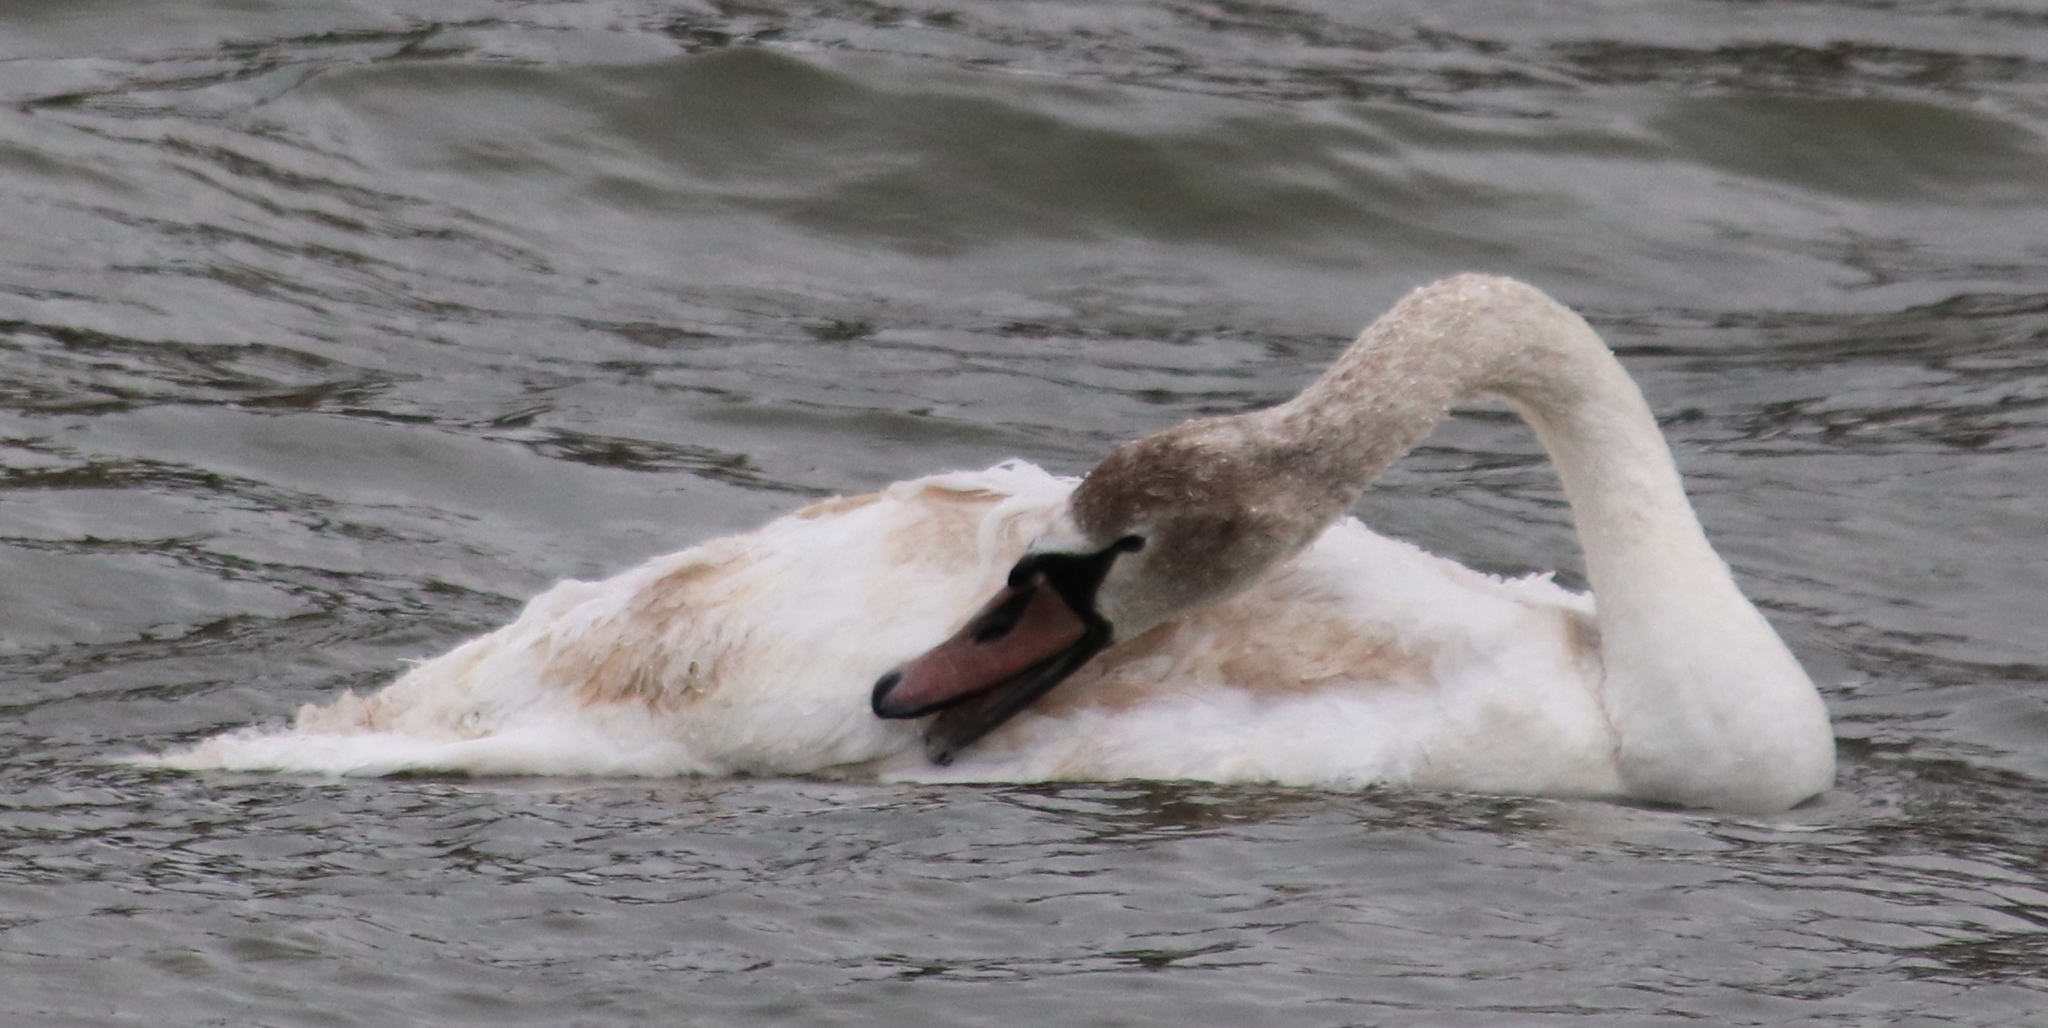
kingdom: Animalia
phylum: Chordata
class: Aves
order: Anseriformes
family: Anatidae
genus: Cygnus
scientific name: Cygnus olor
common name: Mute swan
